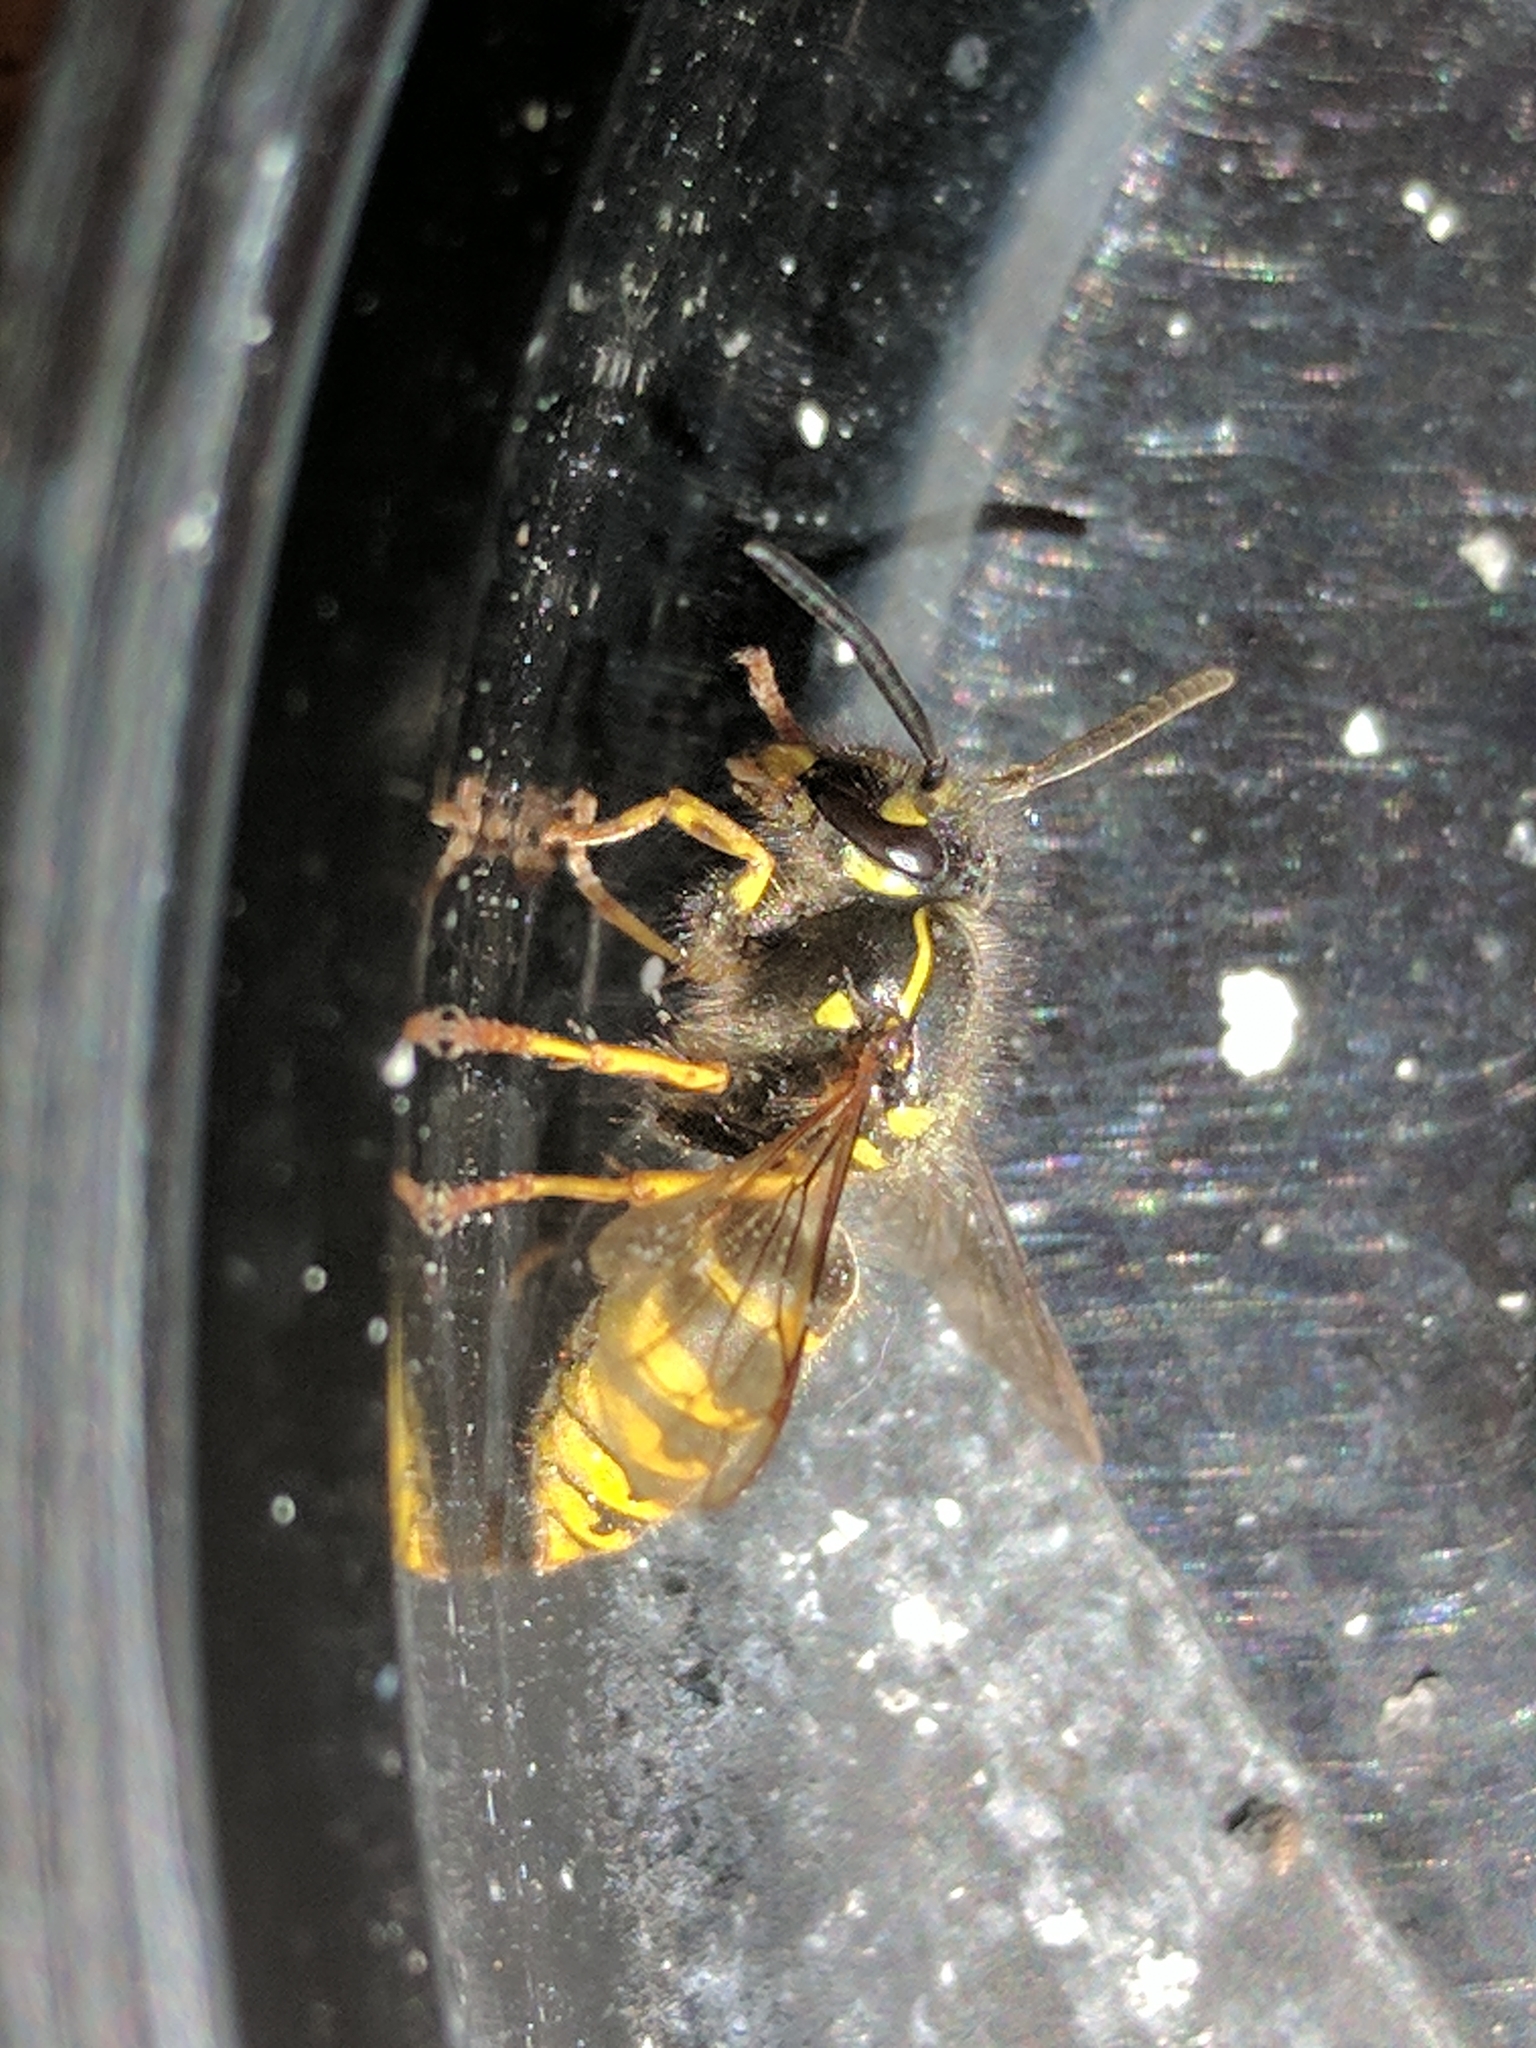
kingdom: Animalia
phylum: Arthropoda
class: Insecta
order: Hymenoptera
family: Vespidae
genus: Vespula
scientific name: Vespula vulgaris
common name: Common wasp
